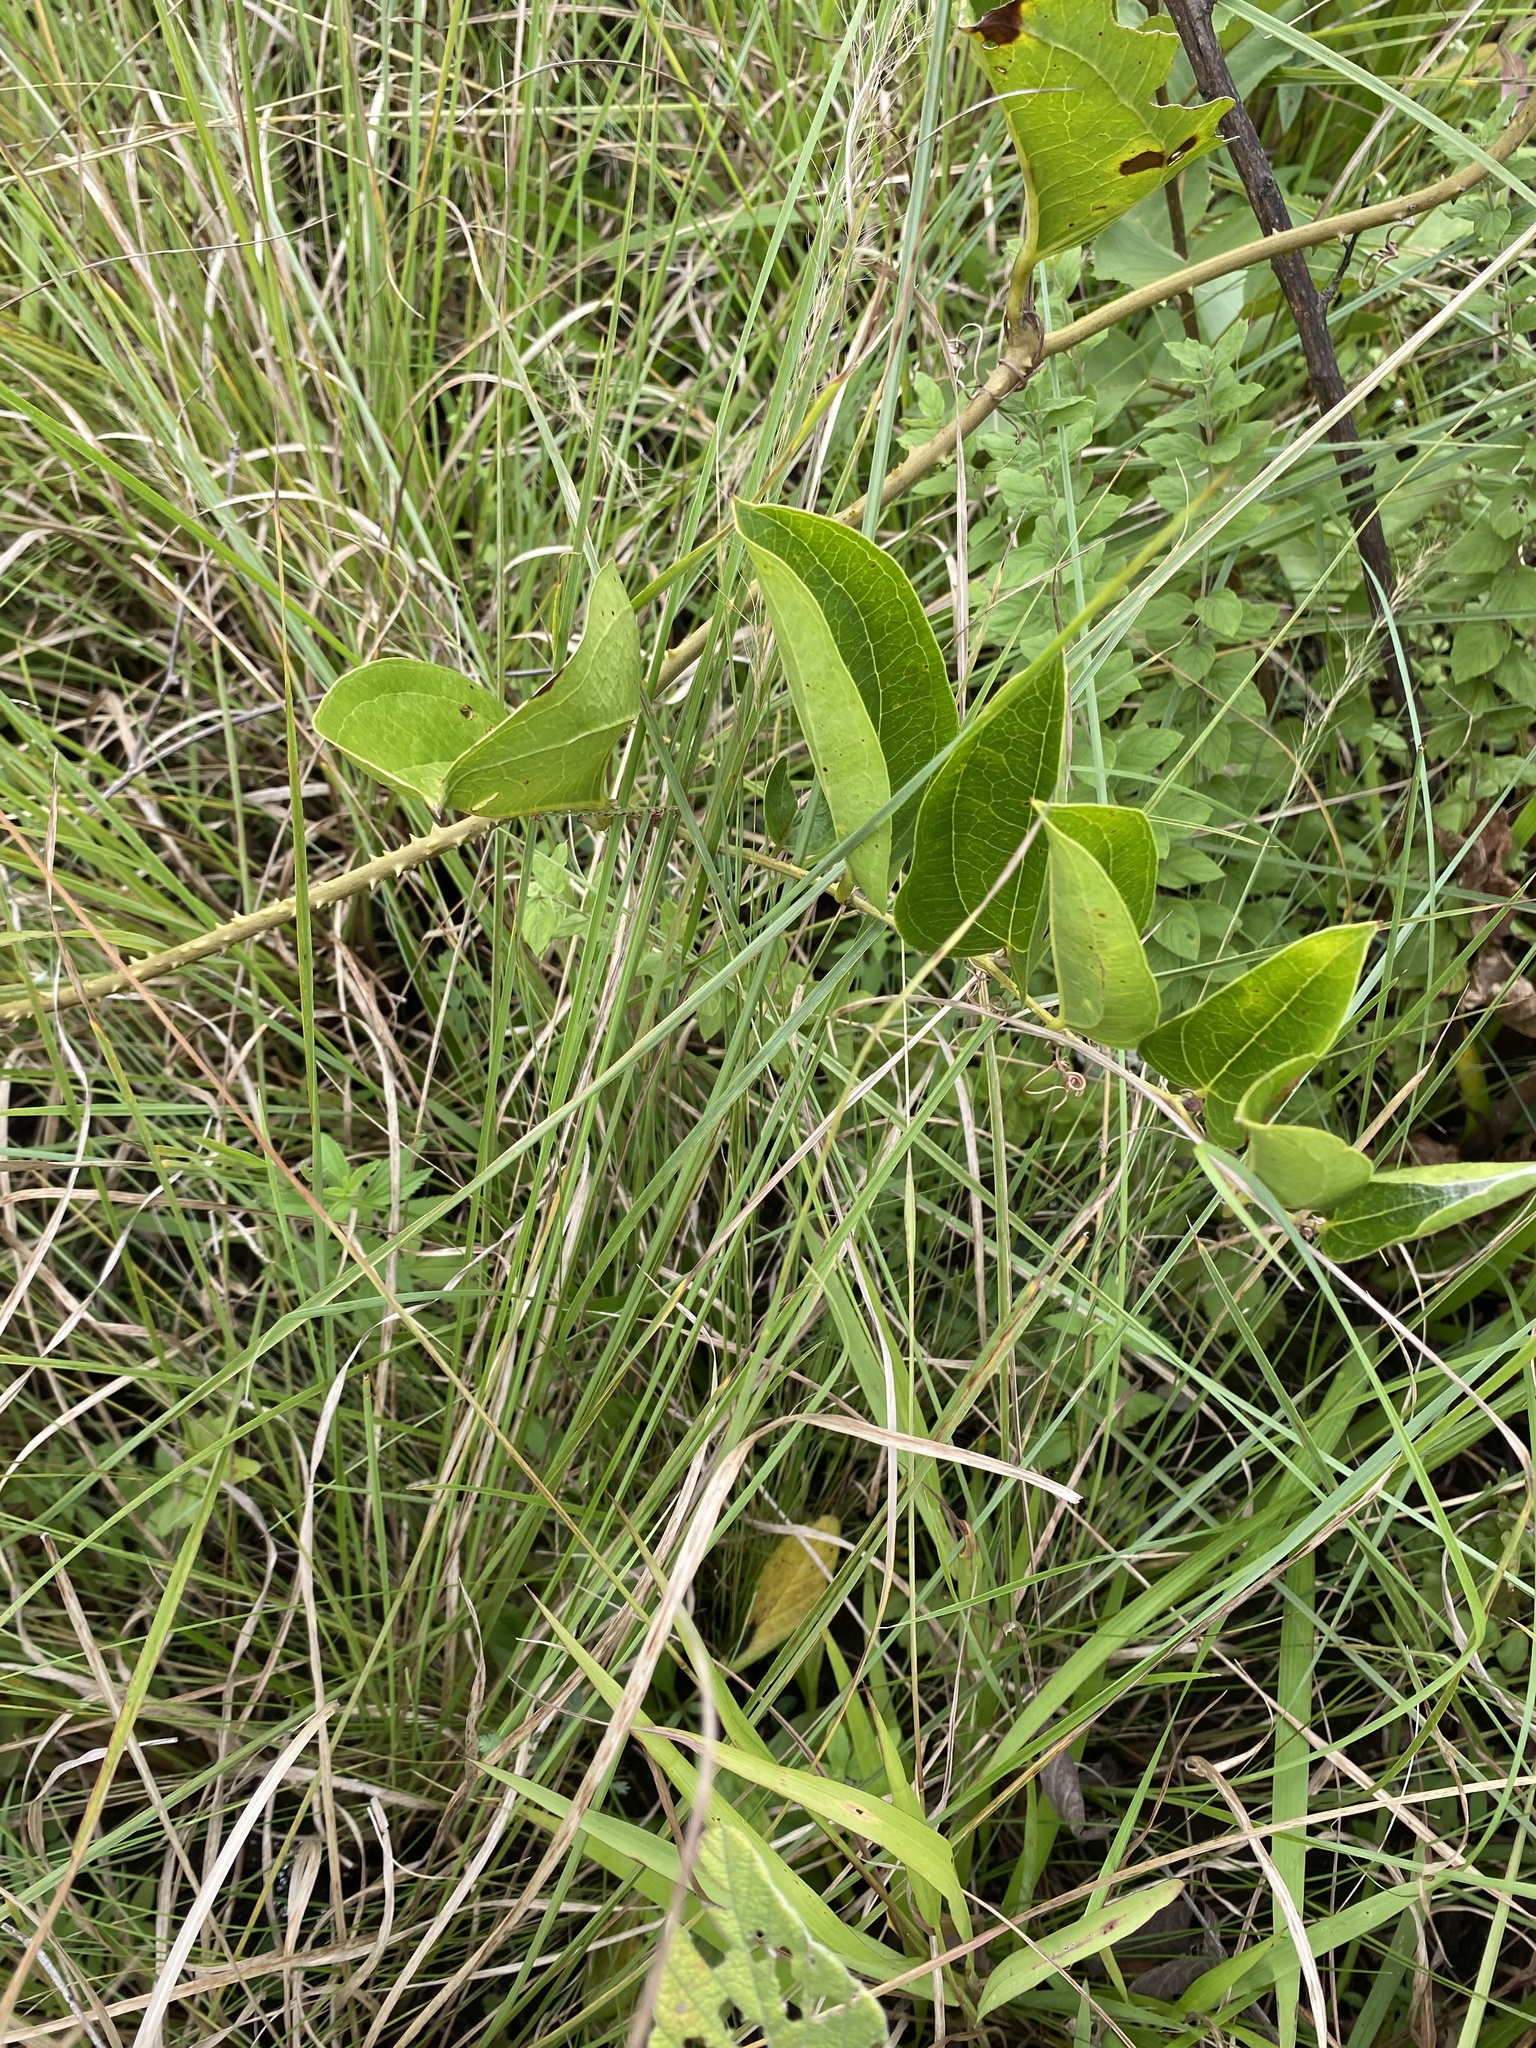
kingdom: Plantae
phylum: Tracheophyta
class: Liliopsida
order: Liliales
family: Smilacaceae
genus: Smilax
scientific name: Smilax anceps
